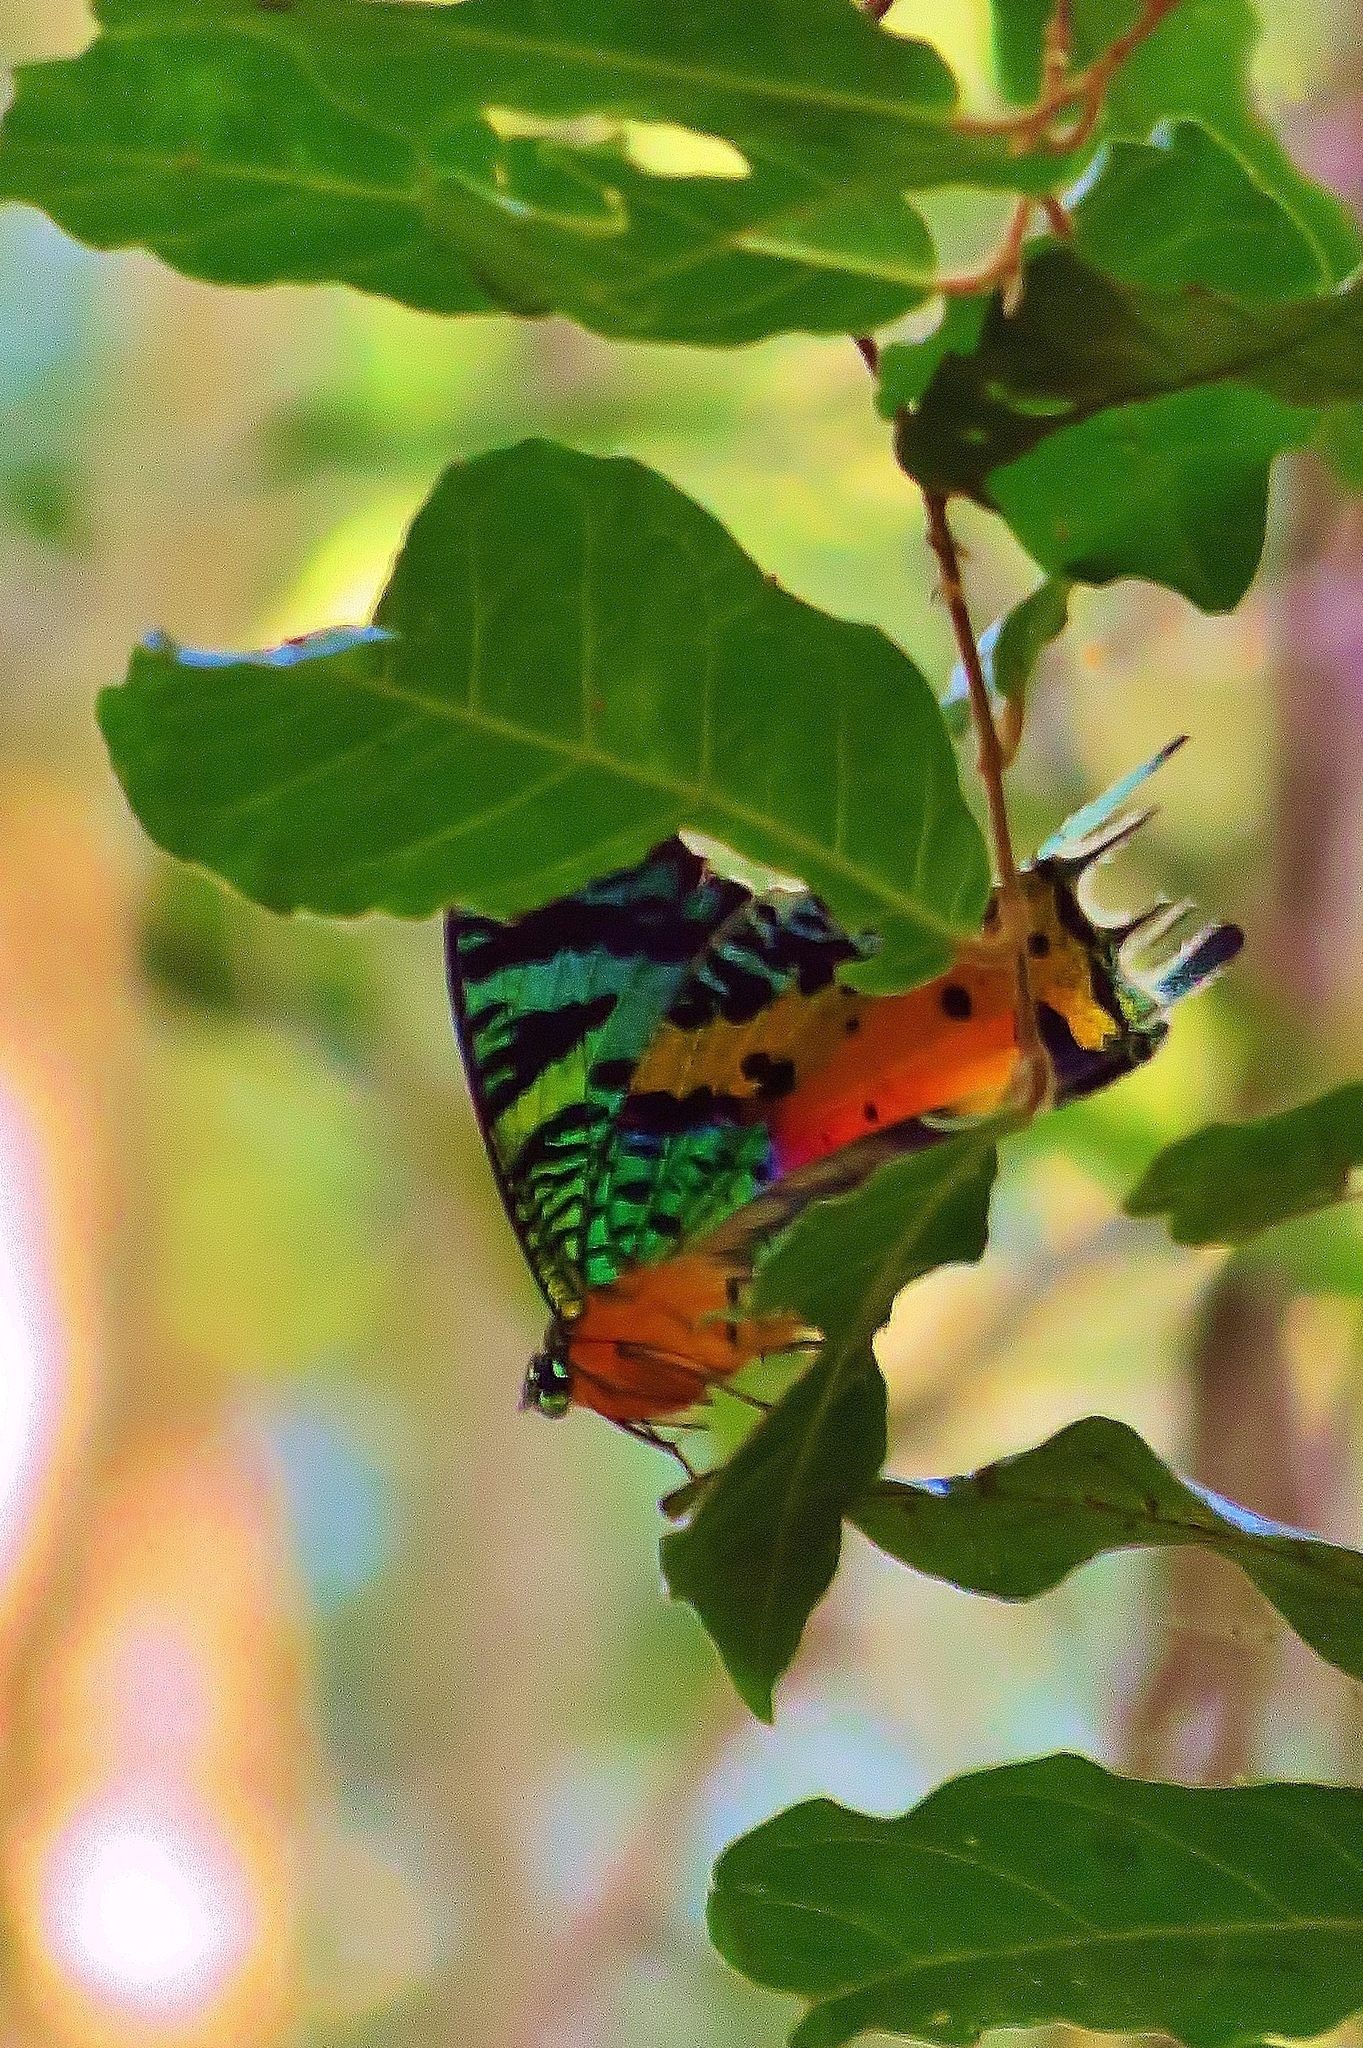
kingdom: Animalia
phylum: Arthropoda
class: Insecta
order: Lepidoptera
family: Uraniidae
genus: Chrysiridia
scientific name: Chrysiridia rhipheus
